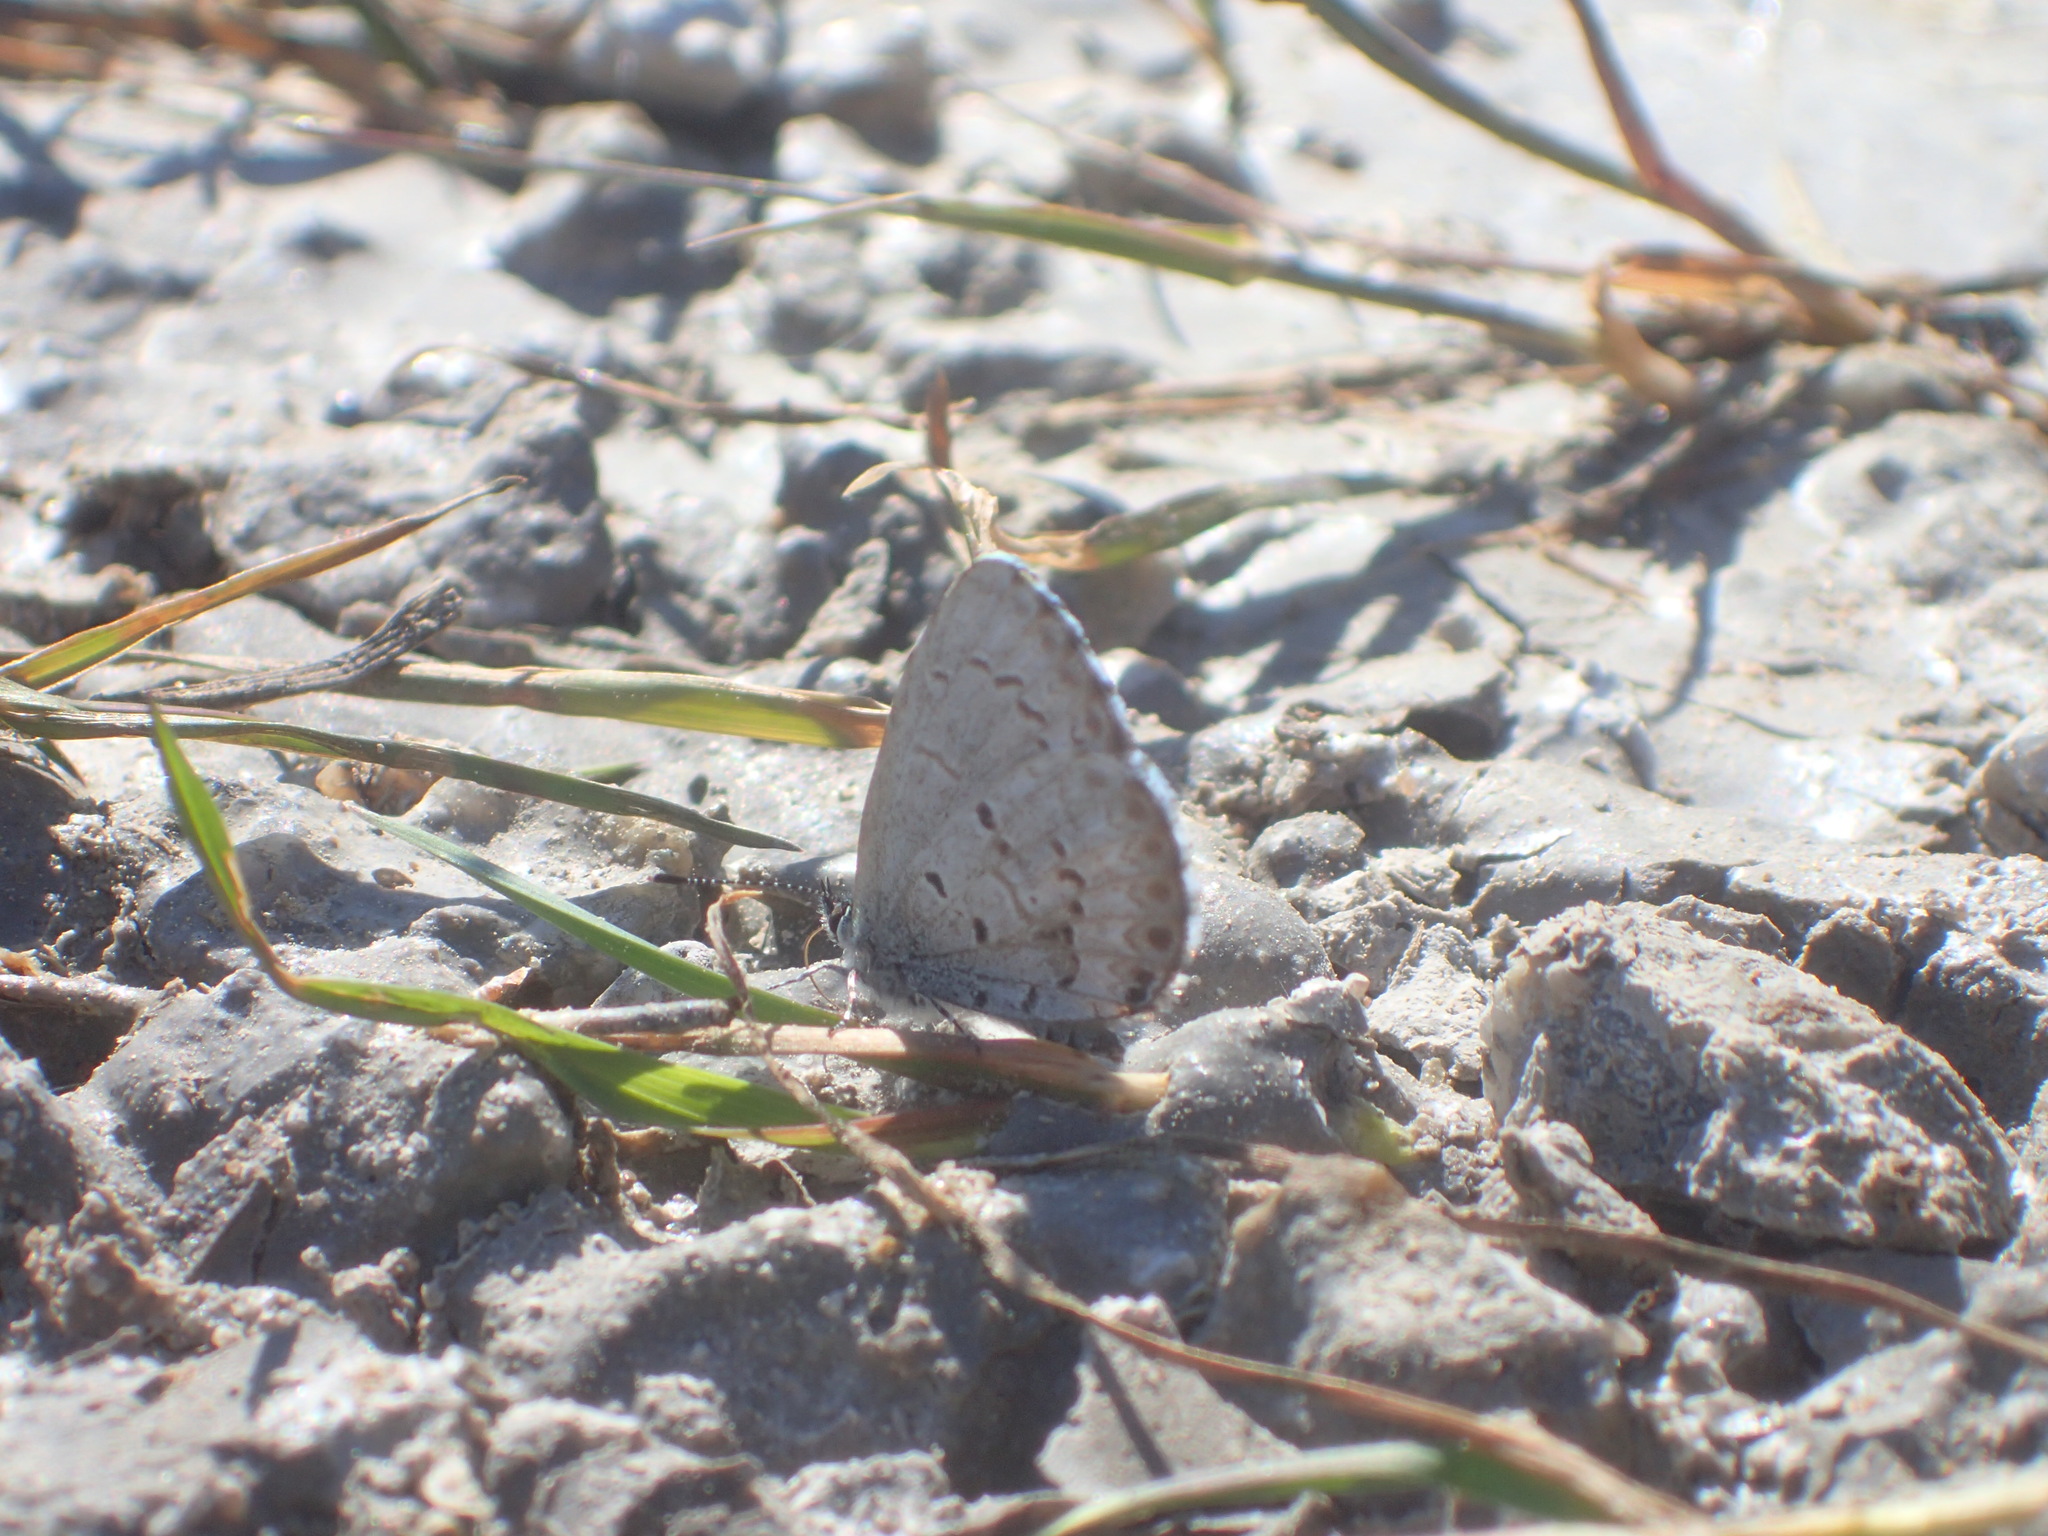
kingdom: Animalia
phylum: Arthropoda
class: Insecta
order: Lepidoptera
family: Lycaenidae
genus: Celastrina
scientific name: Celastrina lucia
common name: Lucia azure
